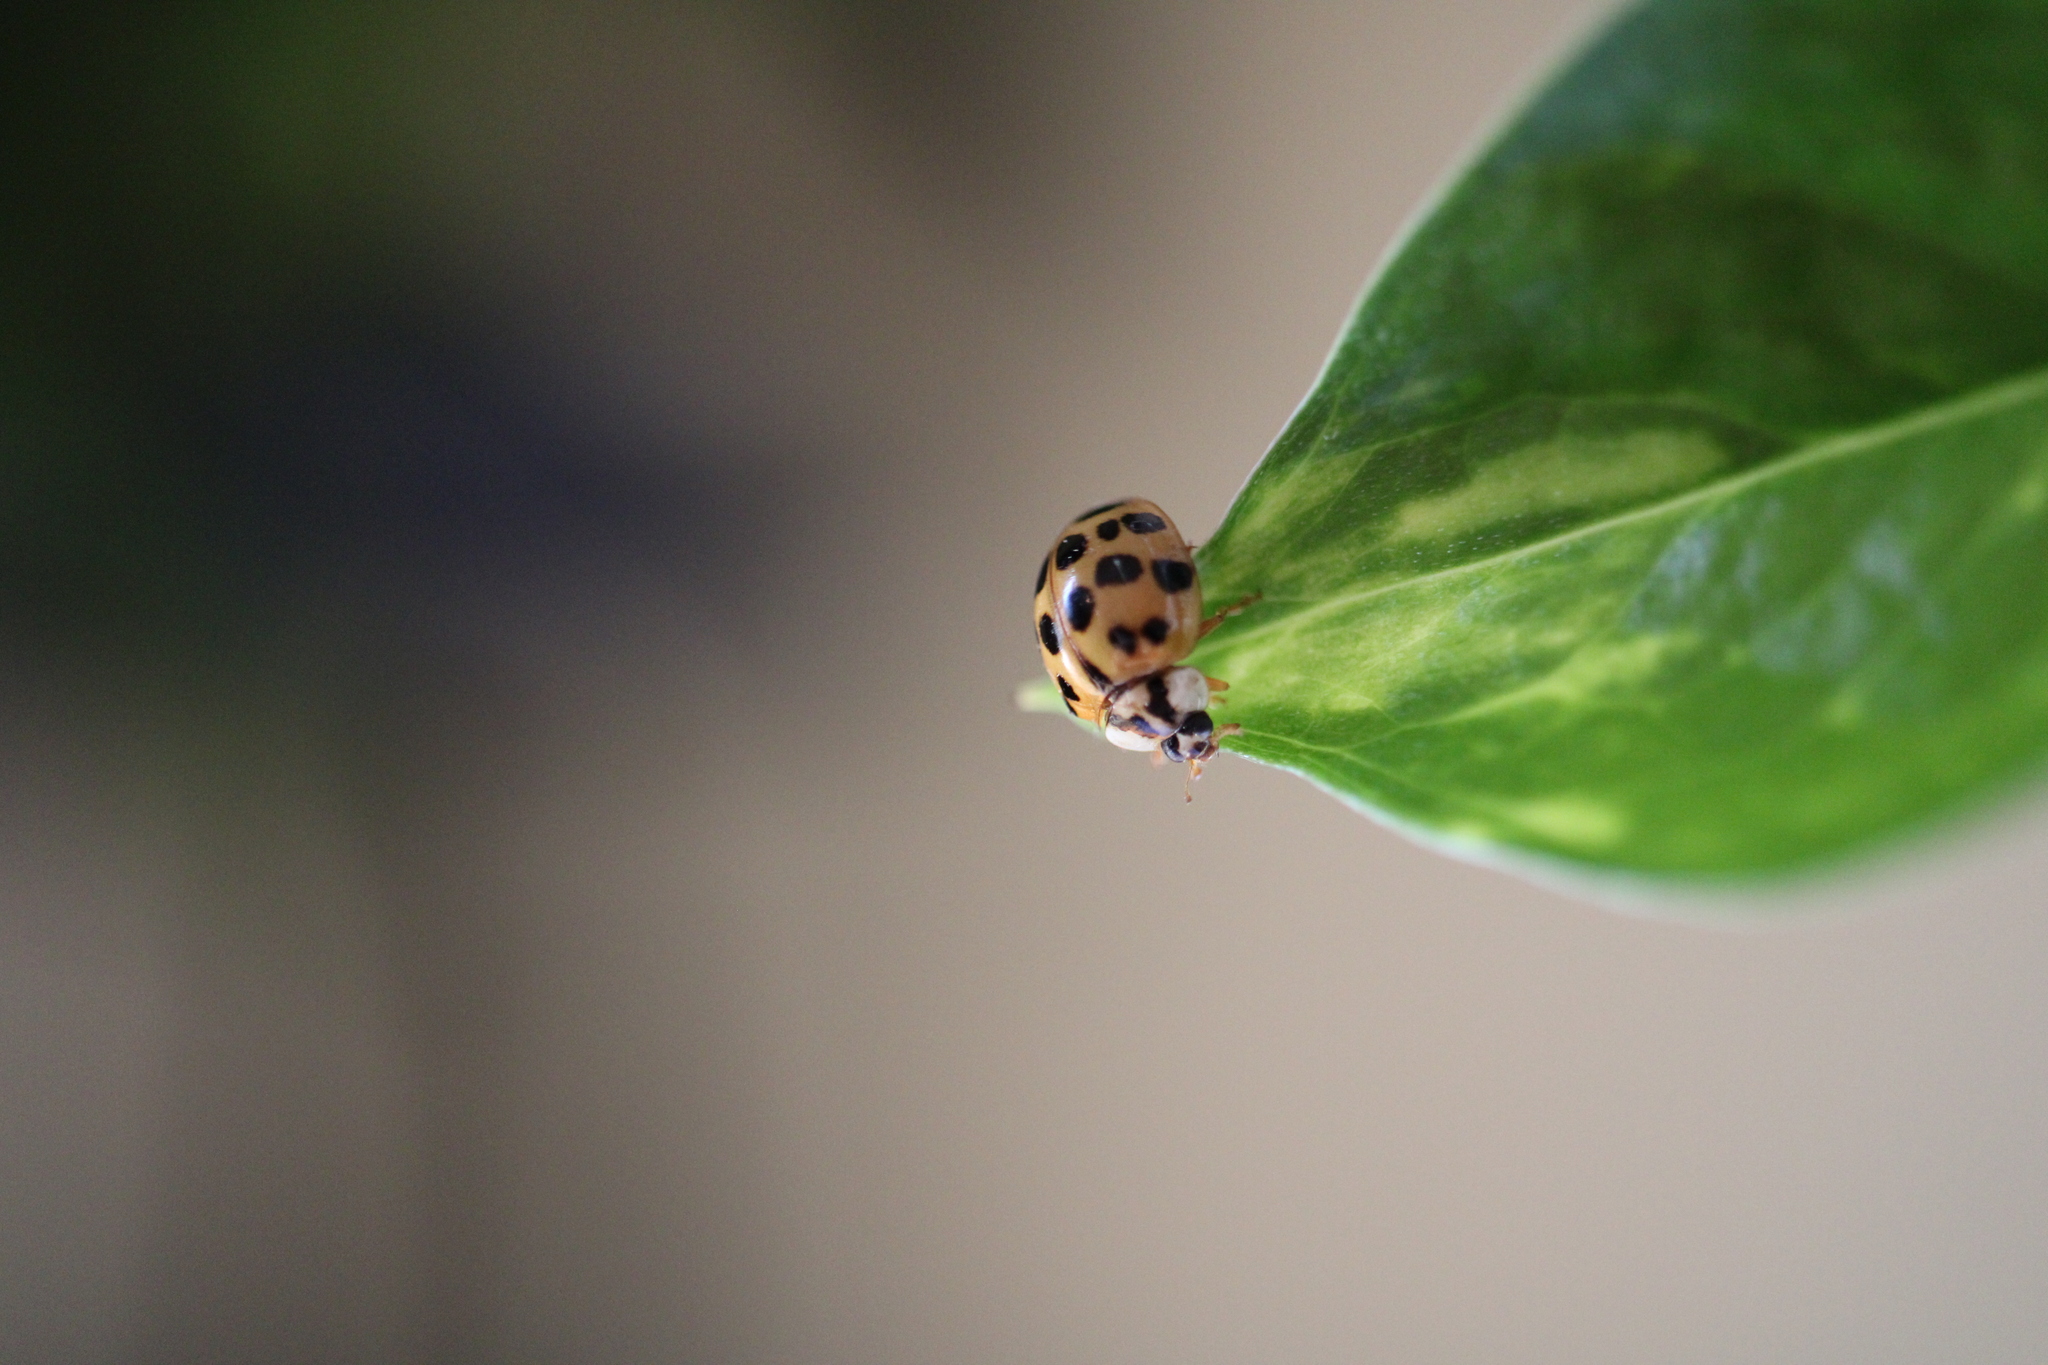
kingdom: Animalia
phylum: Arthropoda
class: Insecta
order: Coleoptera
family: Coccinellidae
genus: Harmonia
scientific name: Harmonia axyridis
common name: Harlequin ladybird
